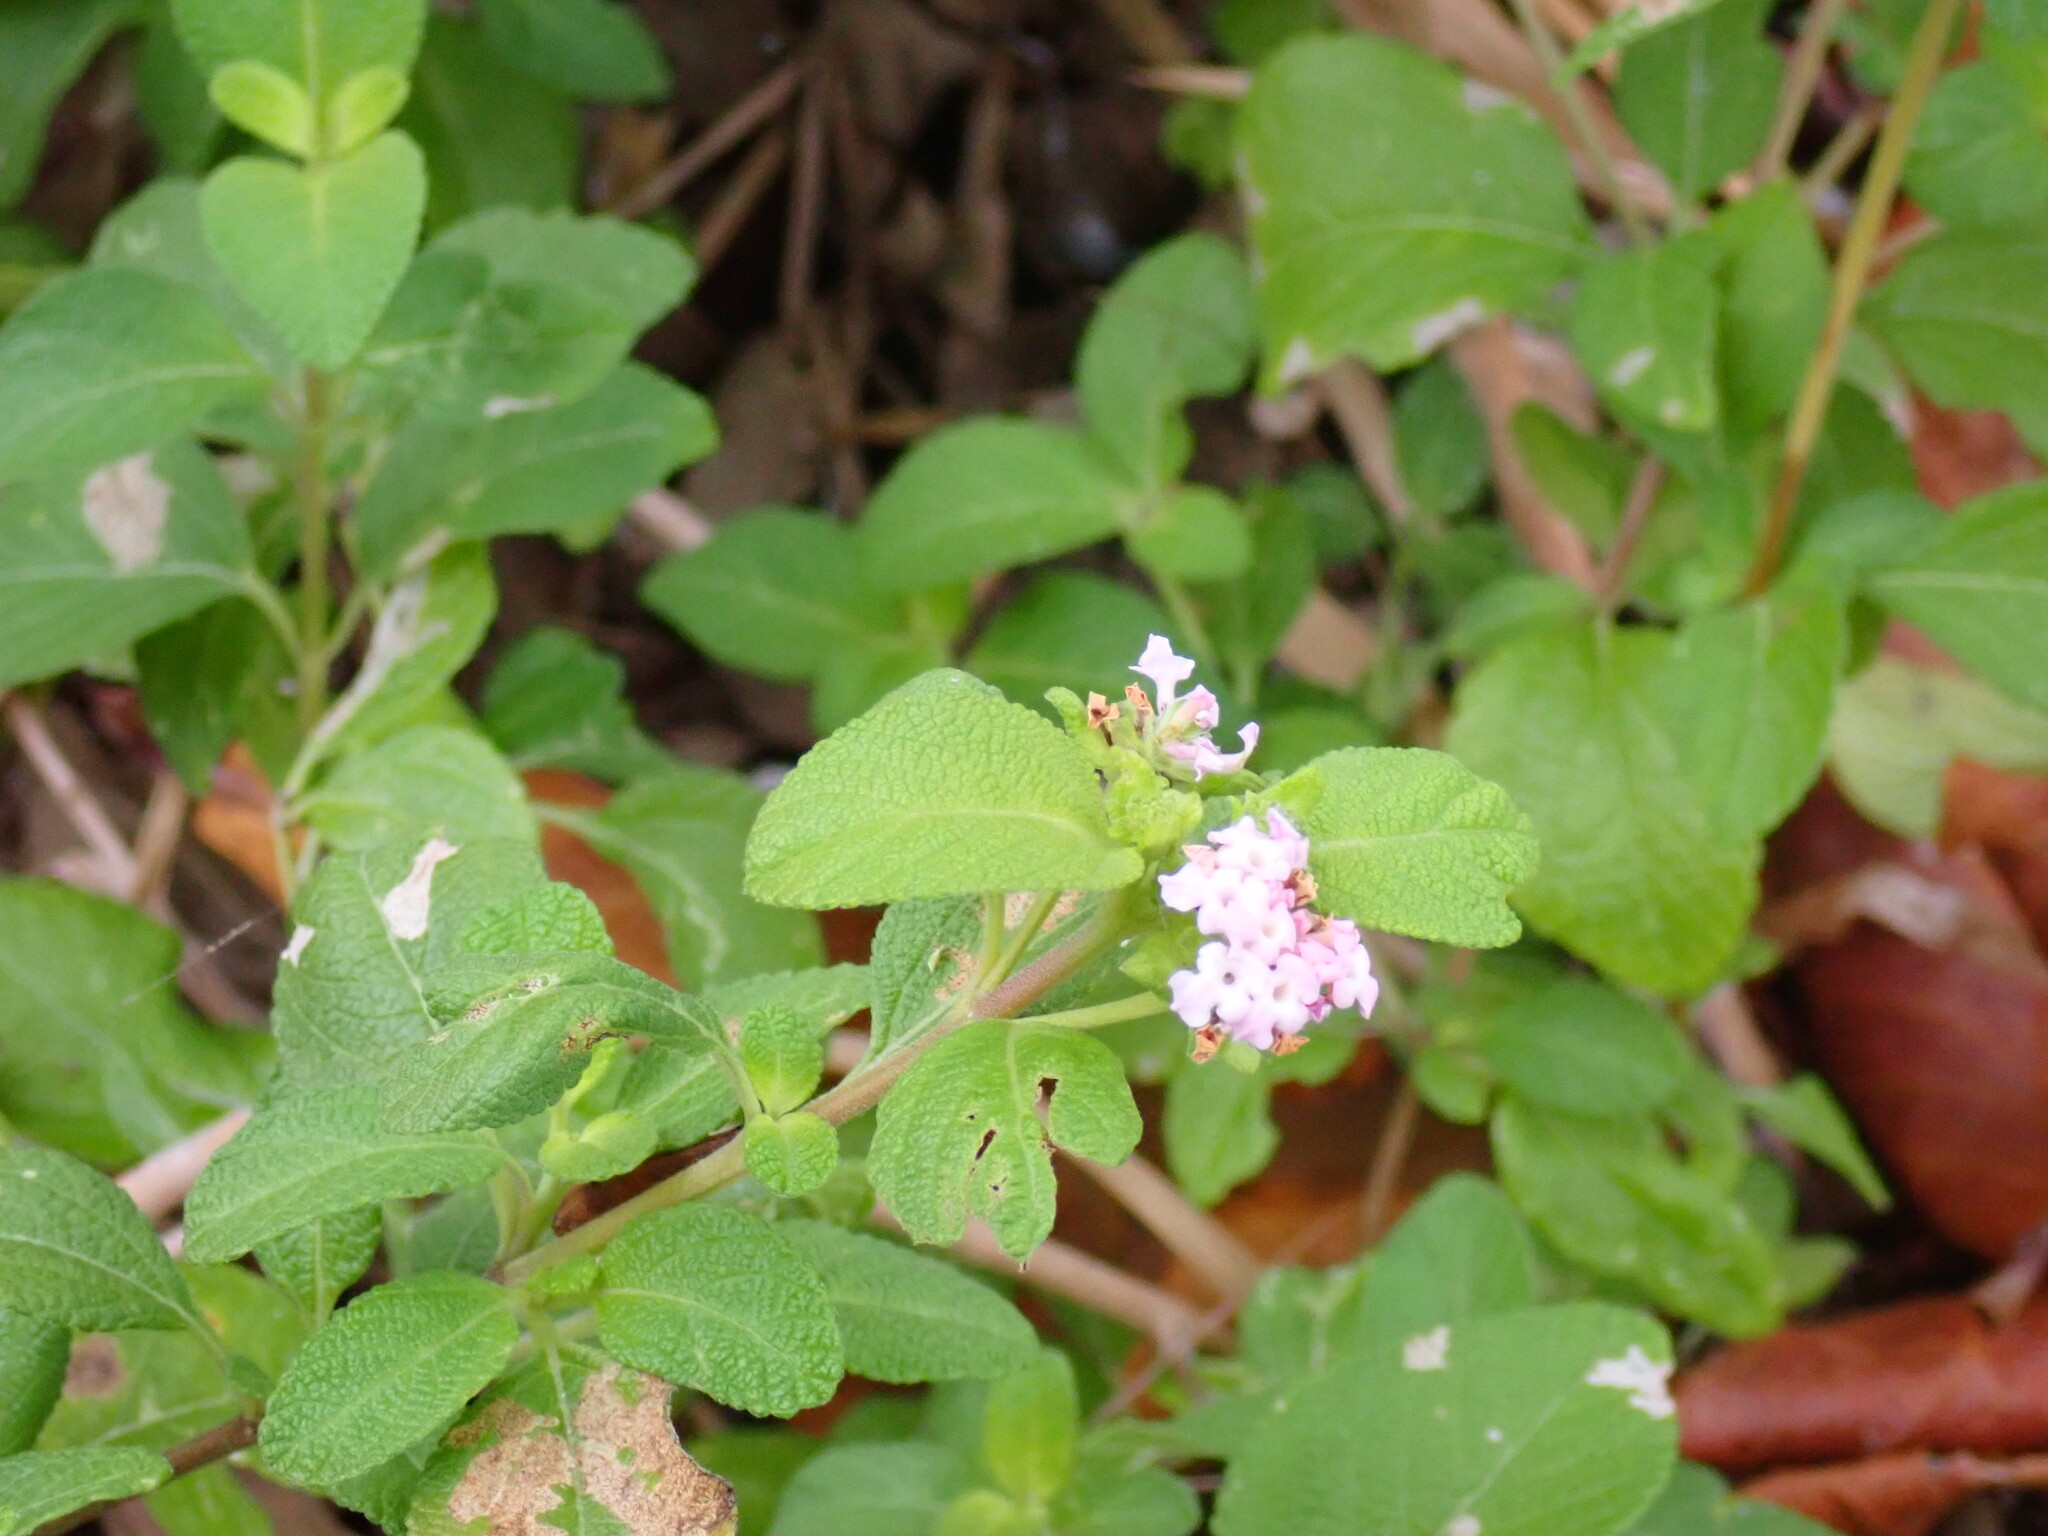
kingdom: Plantae
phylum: Tracheophyta
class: Magnoliopsida
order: Lamiales
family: Verbenaceae
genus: Lantana
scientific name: Lantana involucrata
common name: Black sage
